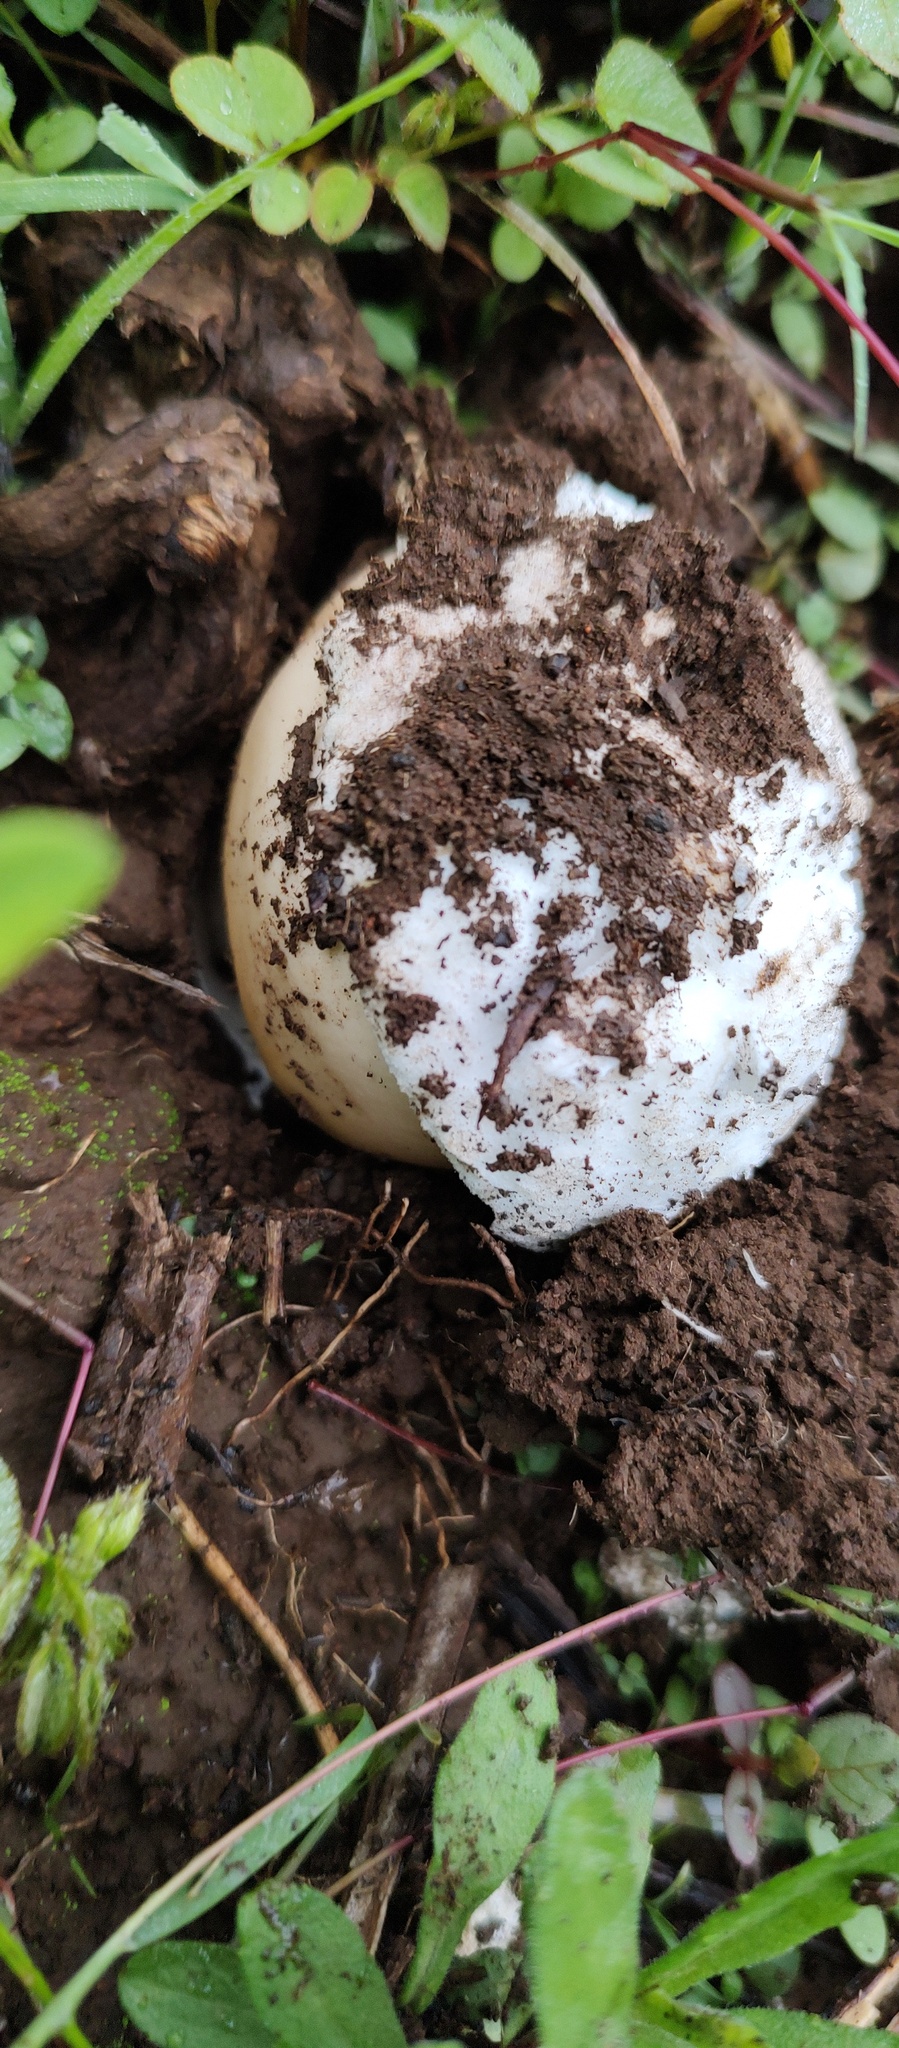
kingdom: Fungi
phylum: Basidiomycota
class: Agaricomycetes
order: Agaricales
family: Amanitaceae
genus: Amanita
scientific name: Amanita spreta
